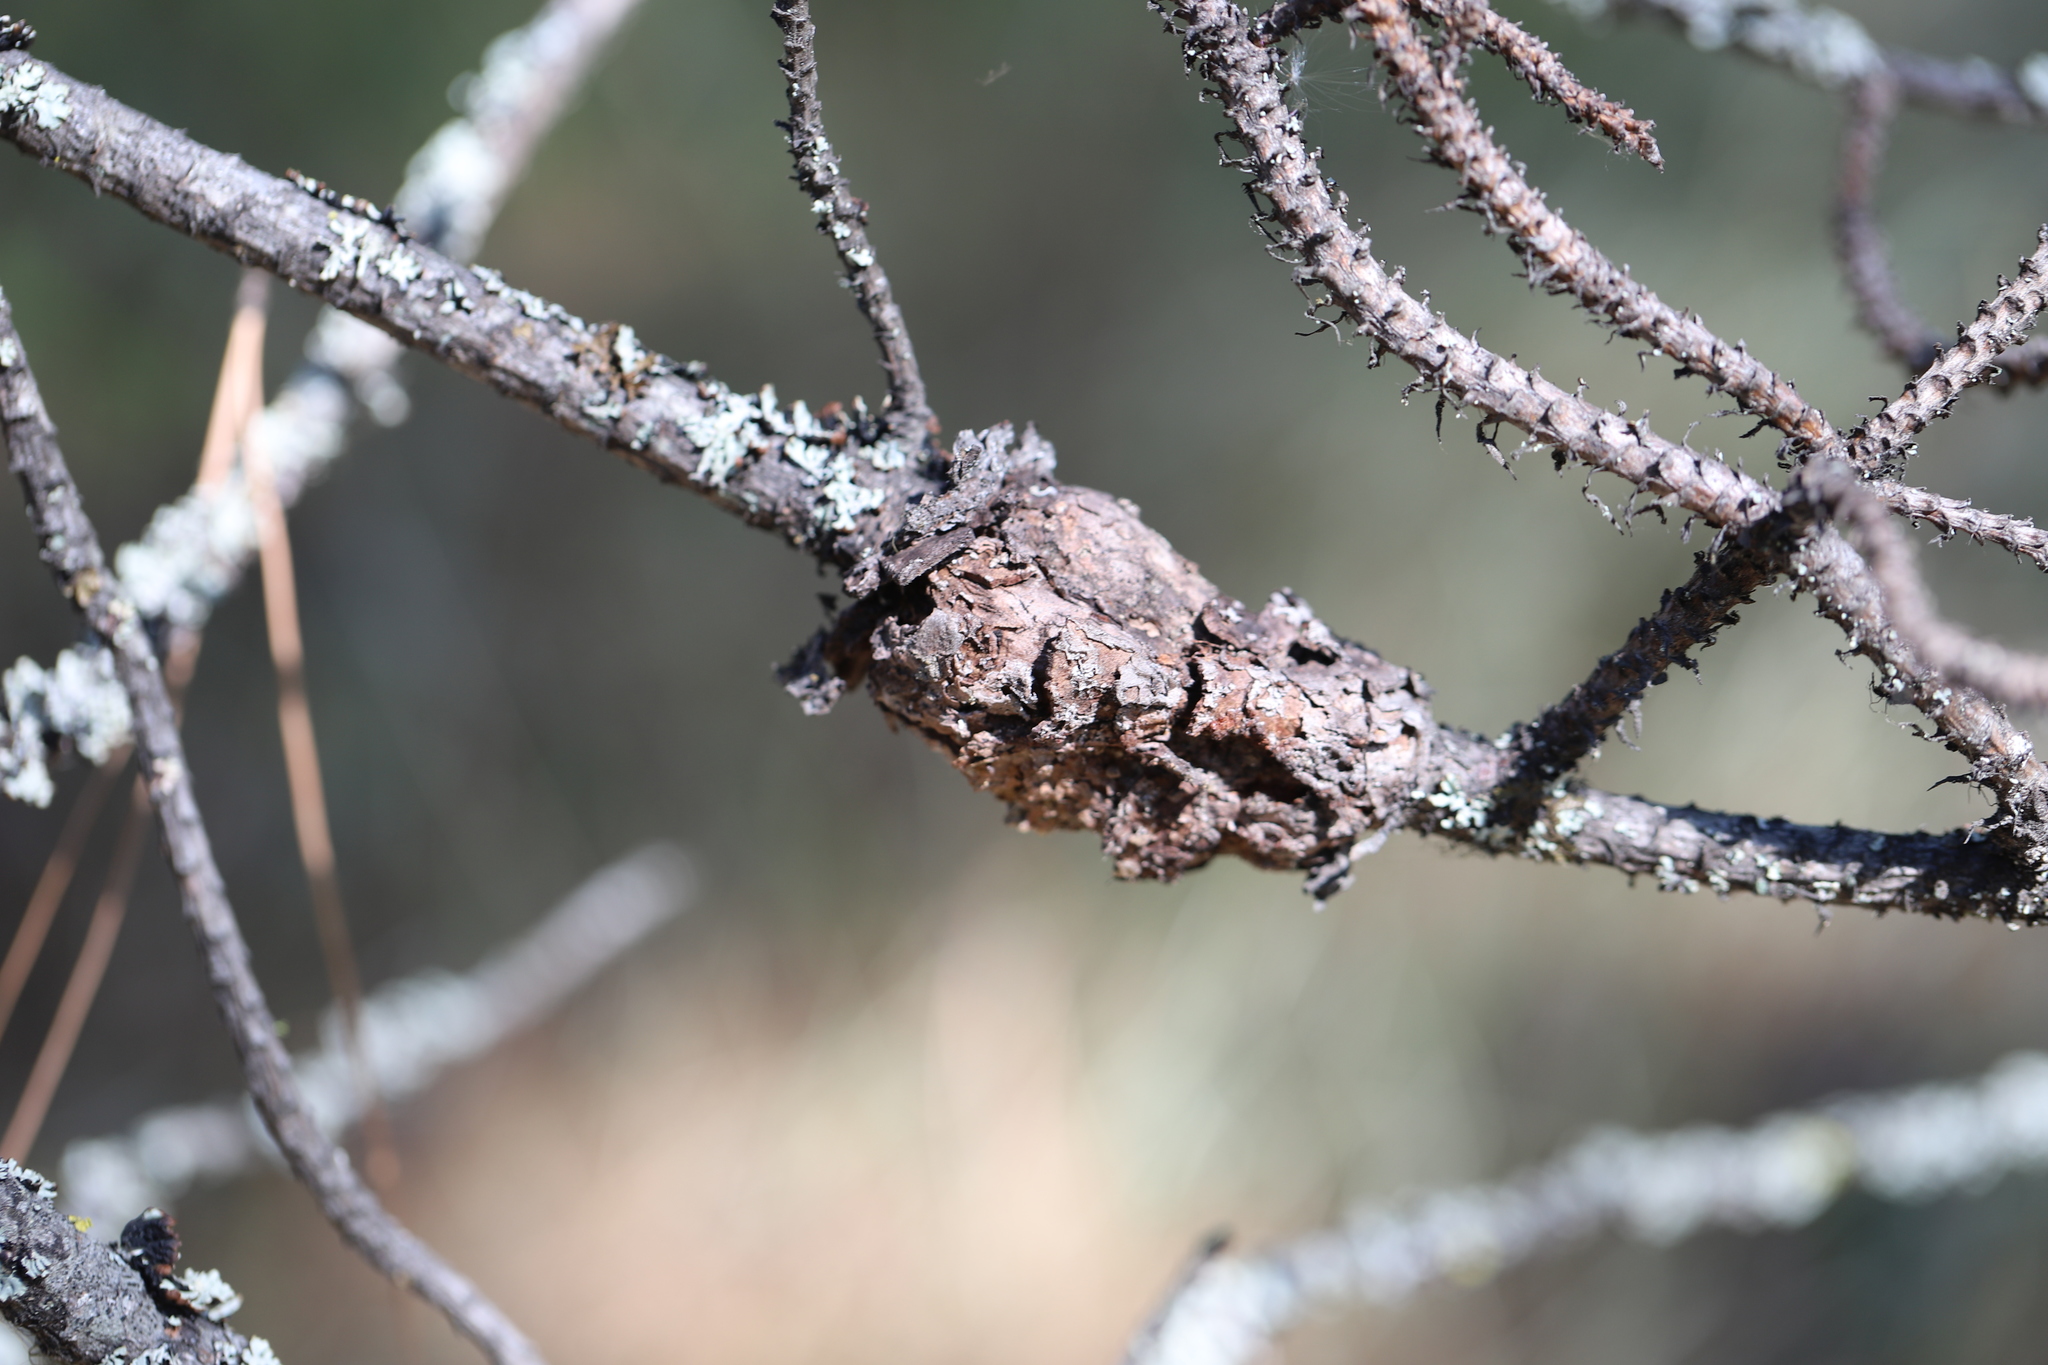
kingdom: Fungi
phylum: Basidiomycota
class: Pucciniomycetes
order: Pucciniales
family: Cronartiaceae
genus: Cronartium
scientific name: Cronartium harknessii
